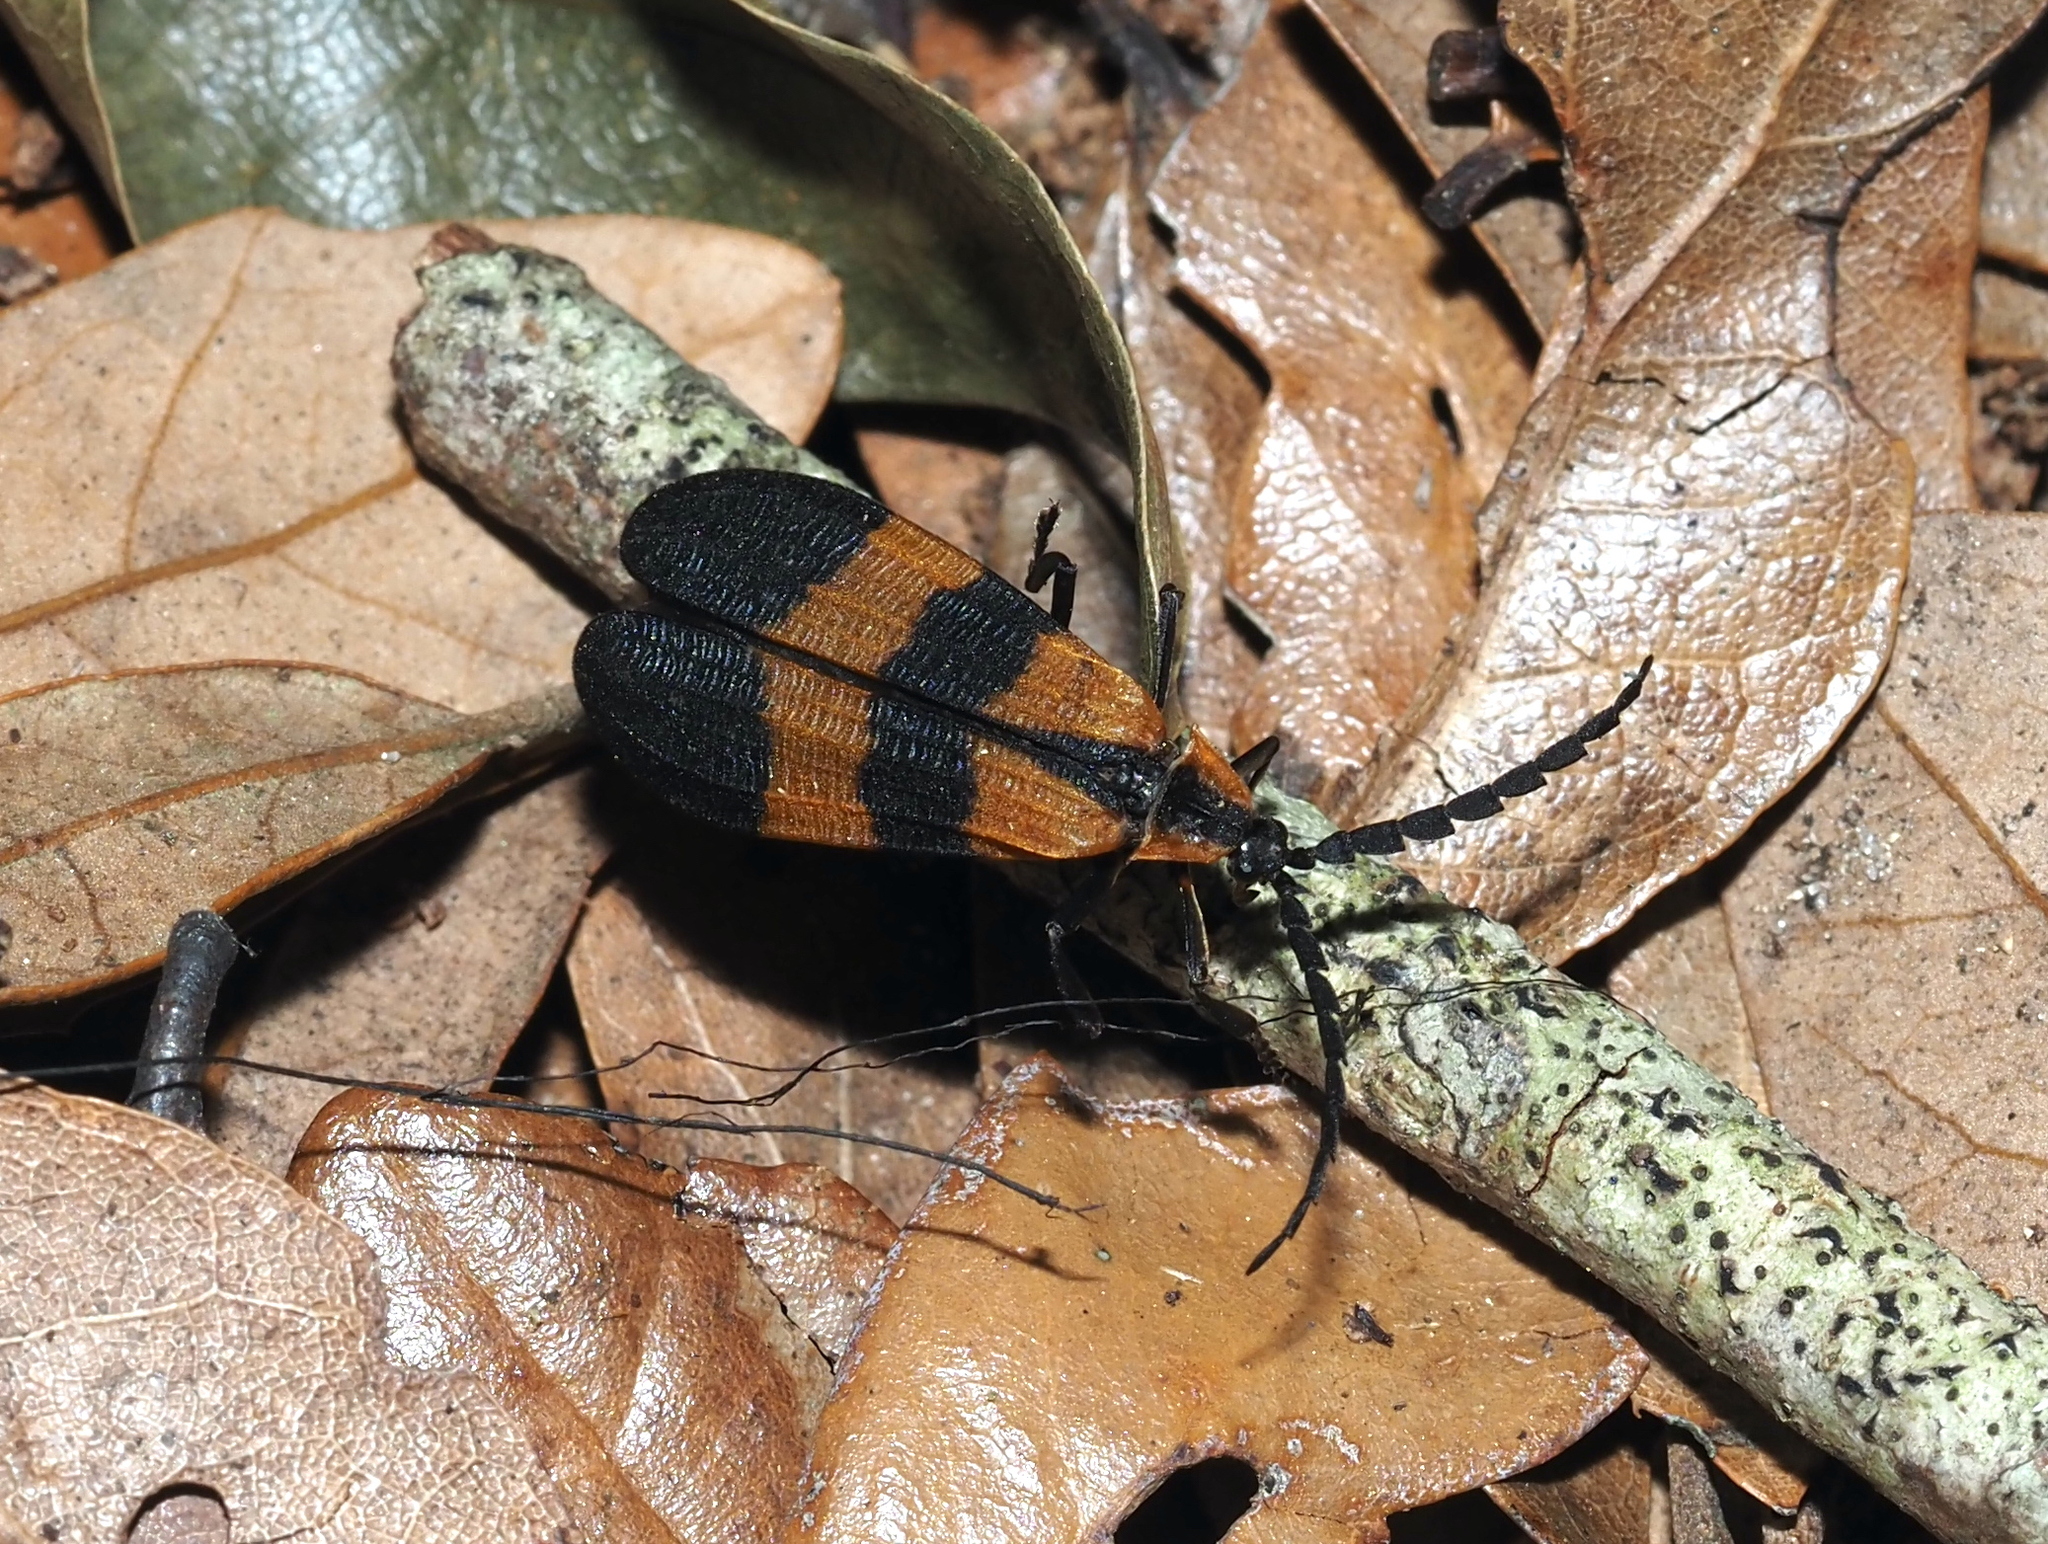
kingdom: Animalia
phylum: Arthropoda
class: Insecta
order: Coleoptera
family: Lycidae
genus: Calopteron
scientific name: Calopteron discrepans
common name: Banded net-winged beetle
